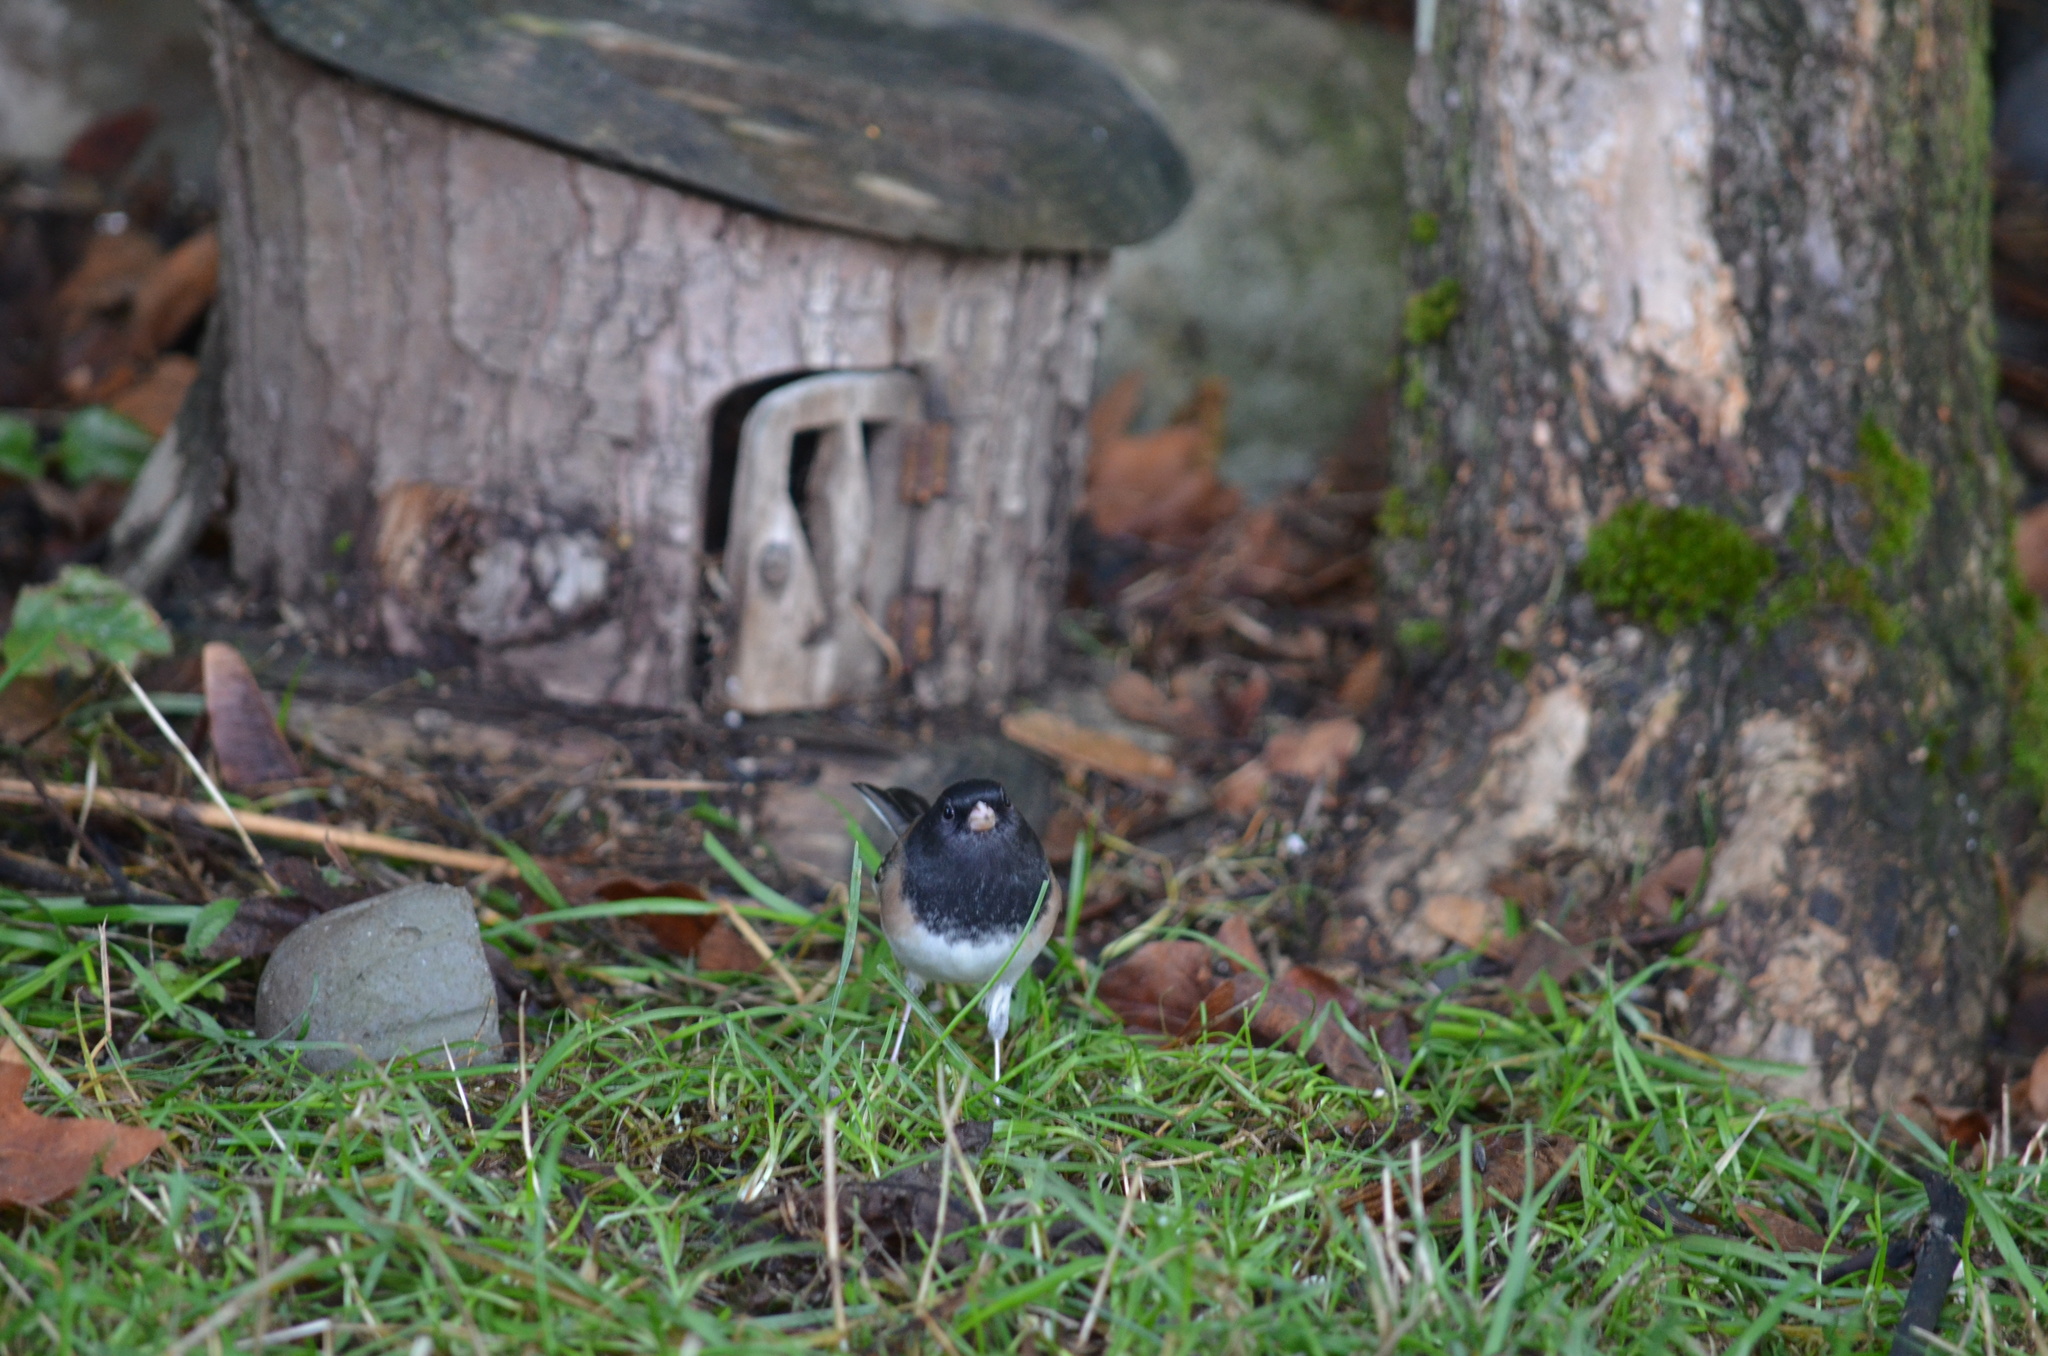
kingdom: Animalia
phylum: Chordata
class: Aves
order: Passeriformes
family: Passerellidae
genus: Junco
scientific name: Junco hyemalis
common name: Dark-eyed junco
